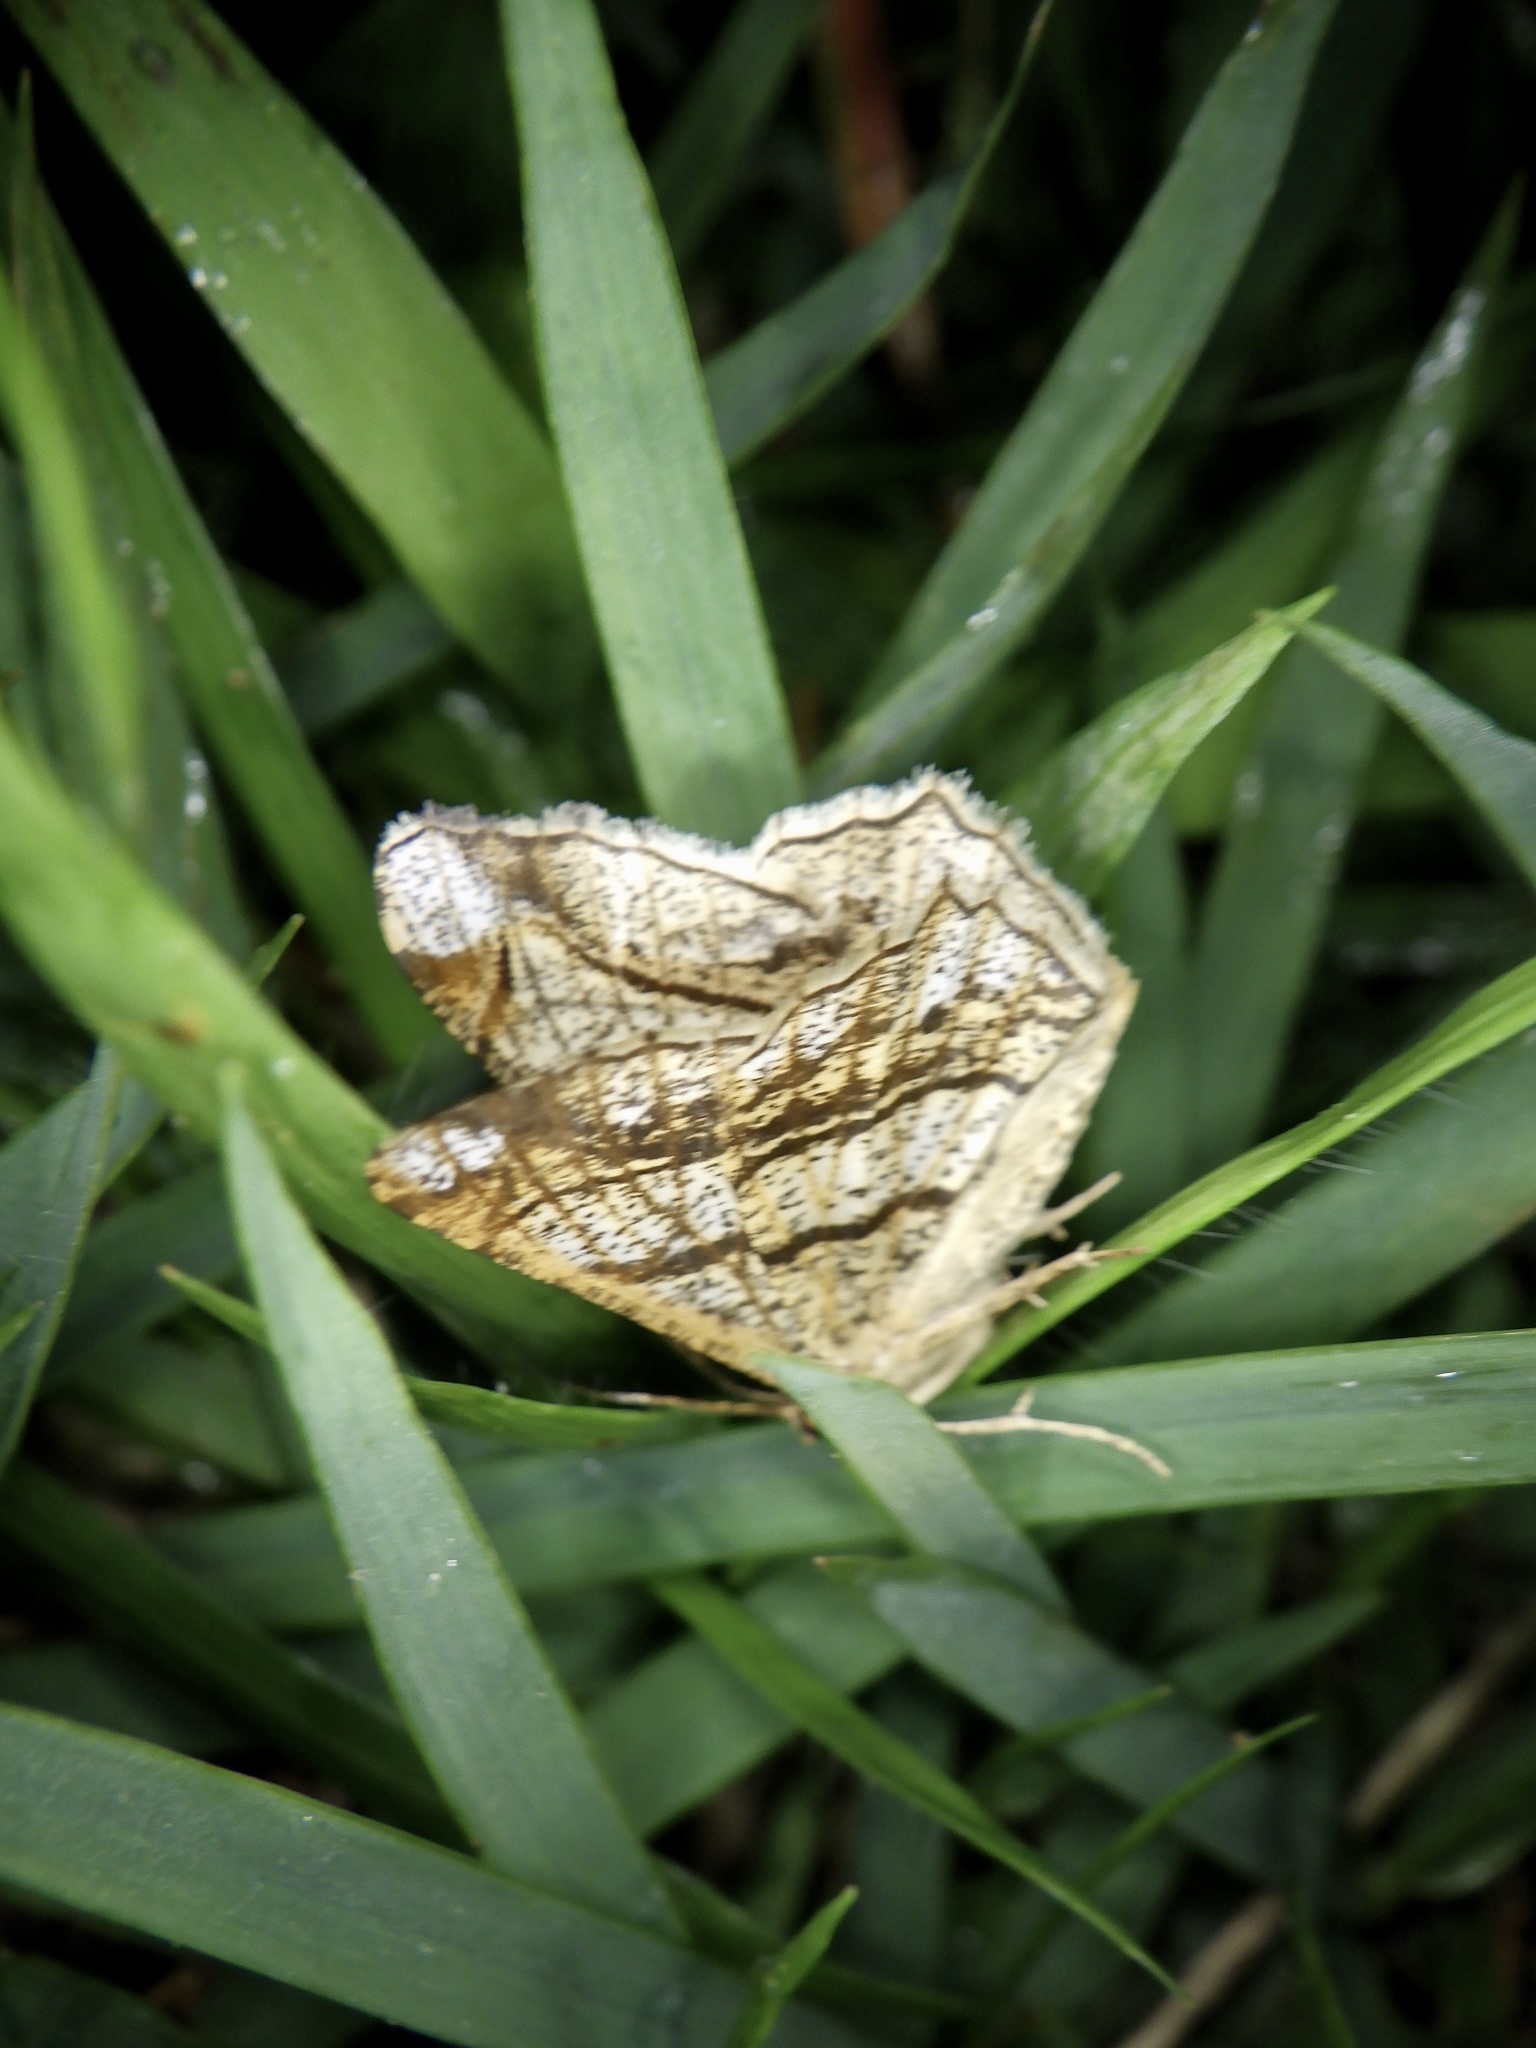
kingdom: Animalia
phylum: Arthropoda
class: Insecta
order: Lepidoptera
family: Geometridae
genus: Chiasmia
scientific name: Chiasmia defixaria
